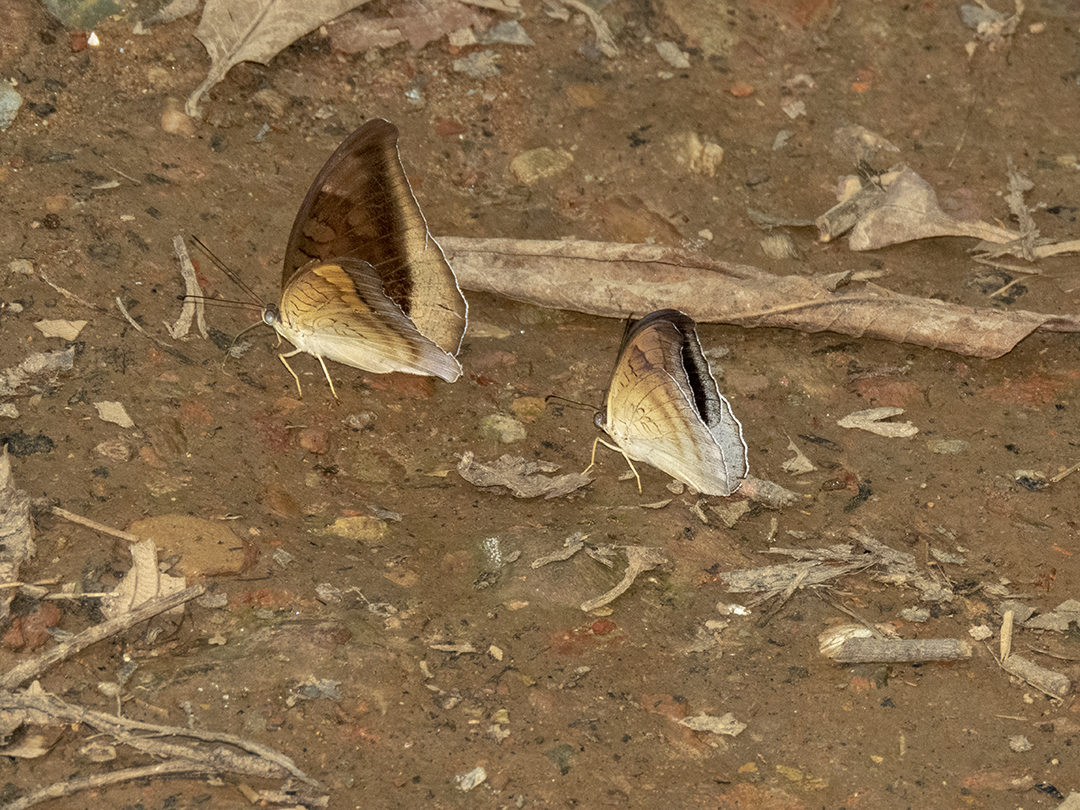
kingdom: Animalia
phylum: Arthropoda
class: Insecta
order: Lepidoptera
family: Nymphalidae
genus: Tanaecia
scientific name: Tanaecia lepidea
